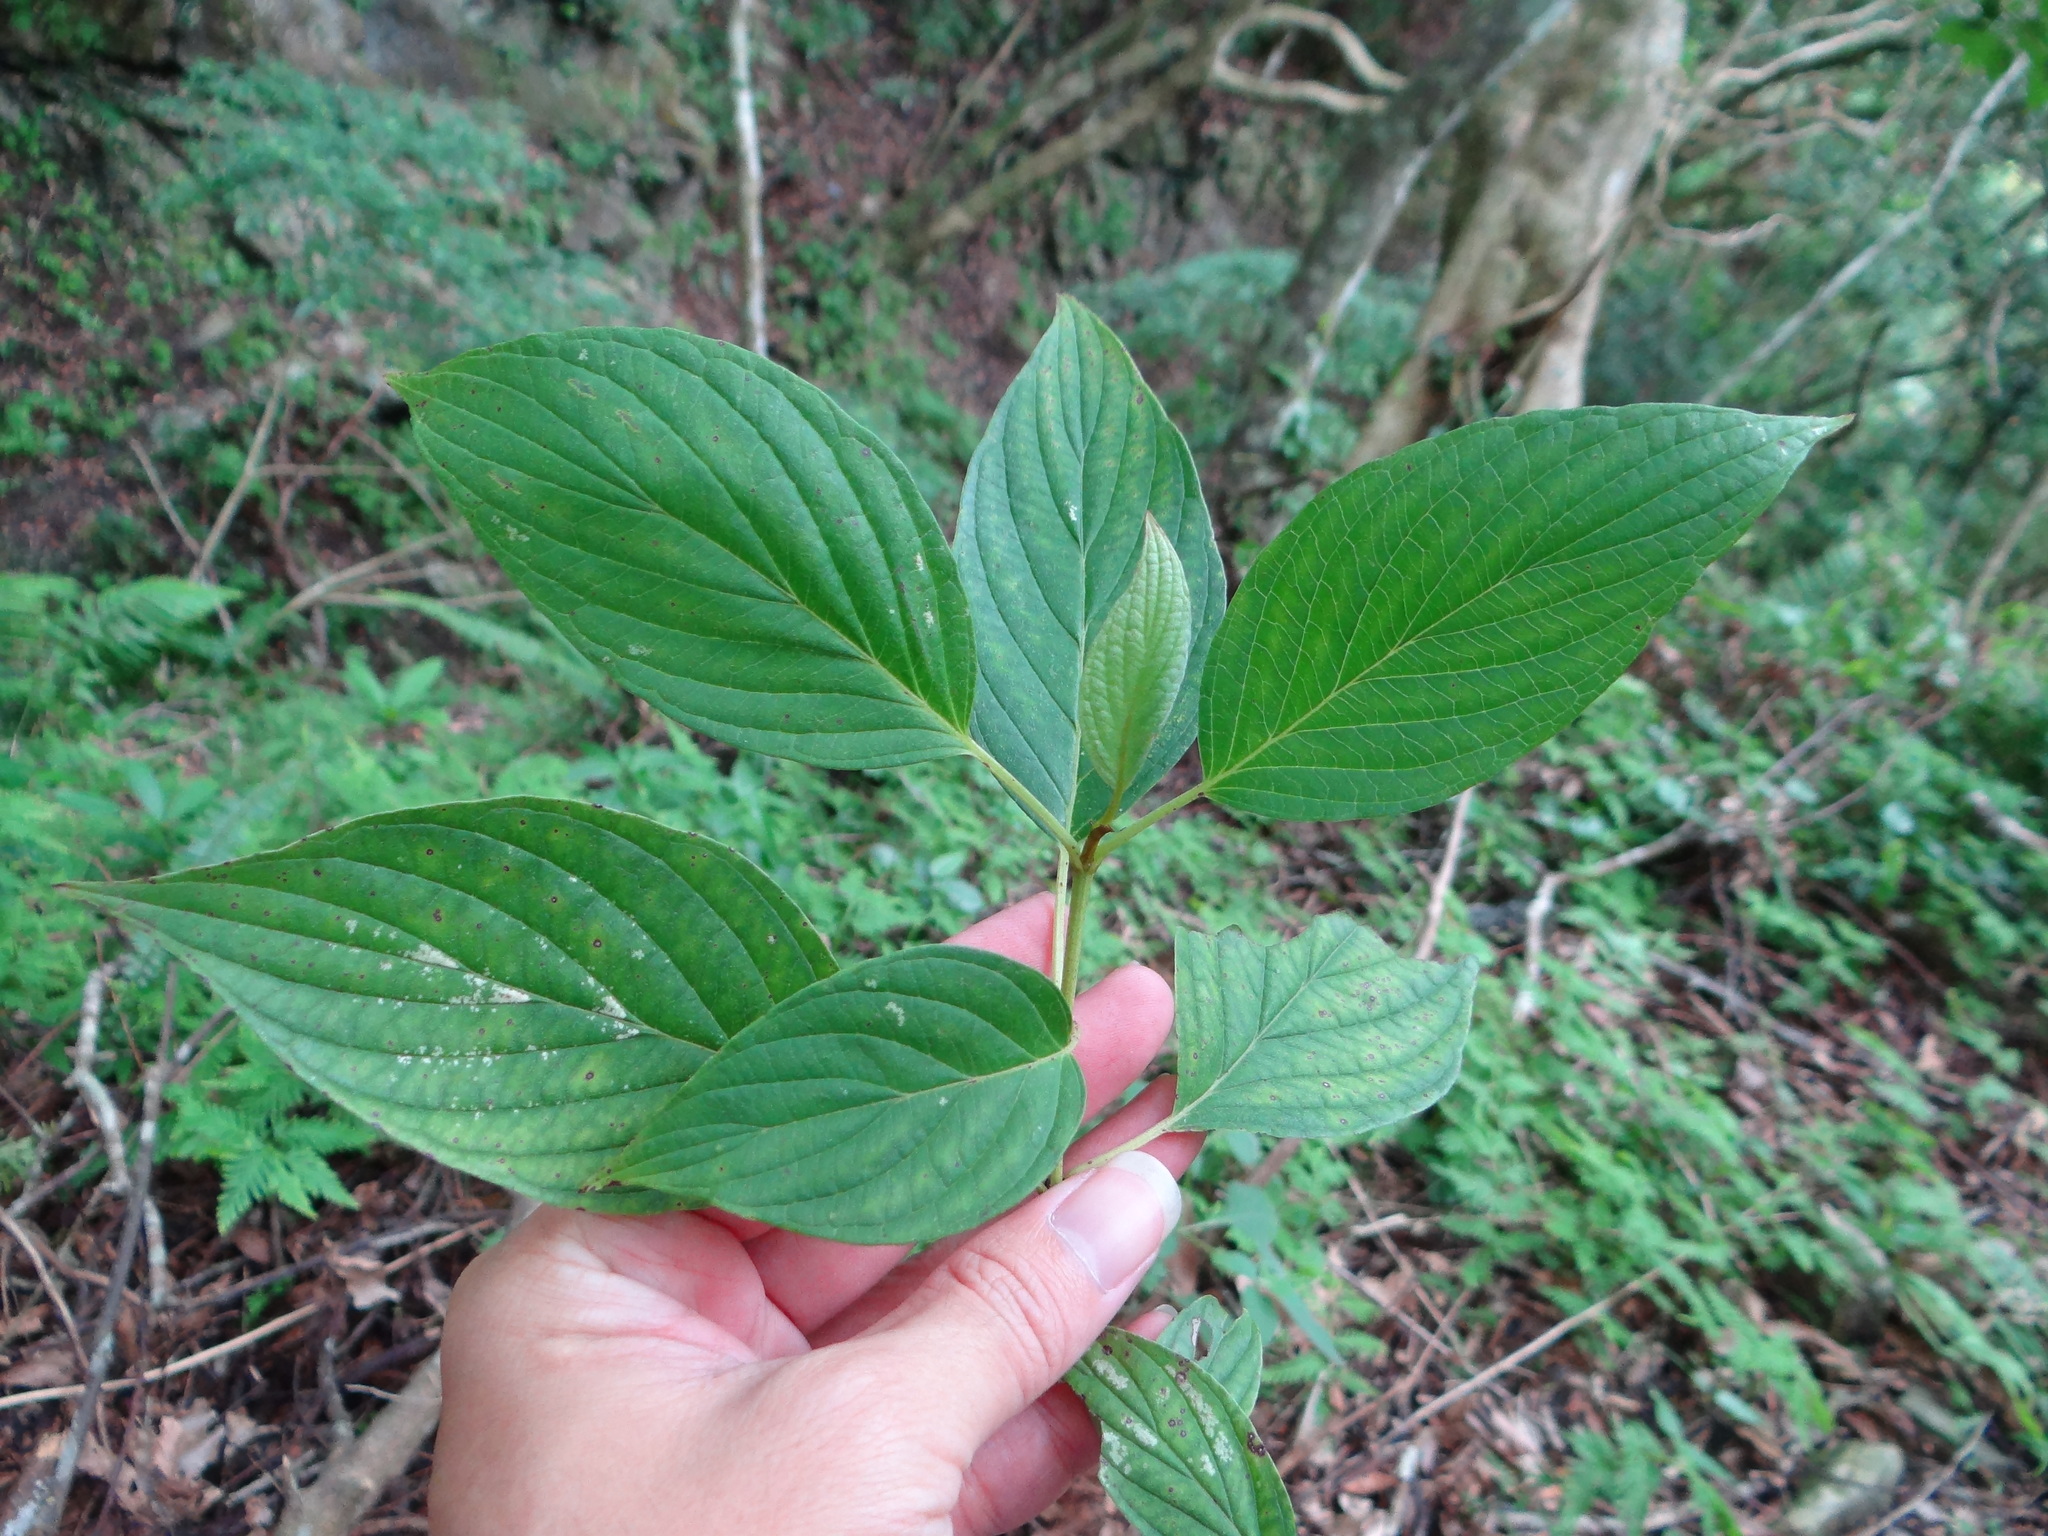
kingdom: Plantae
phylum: Tracheophyta
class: Magnoliopsida
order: Cornales
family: Cornaceae
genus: Cornus
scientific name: Cornus macrophylla
